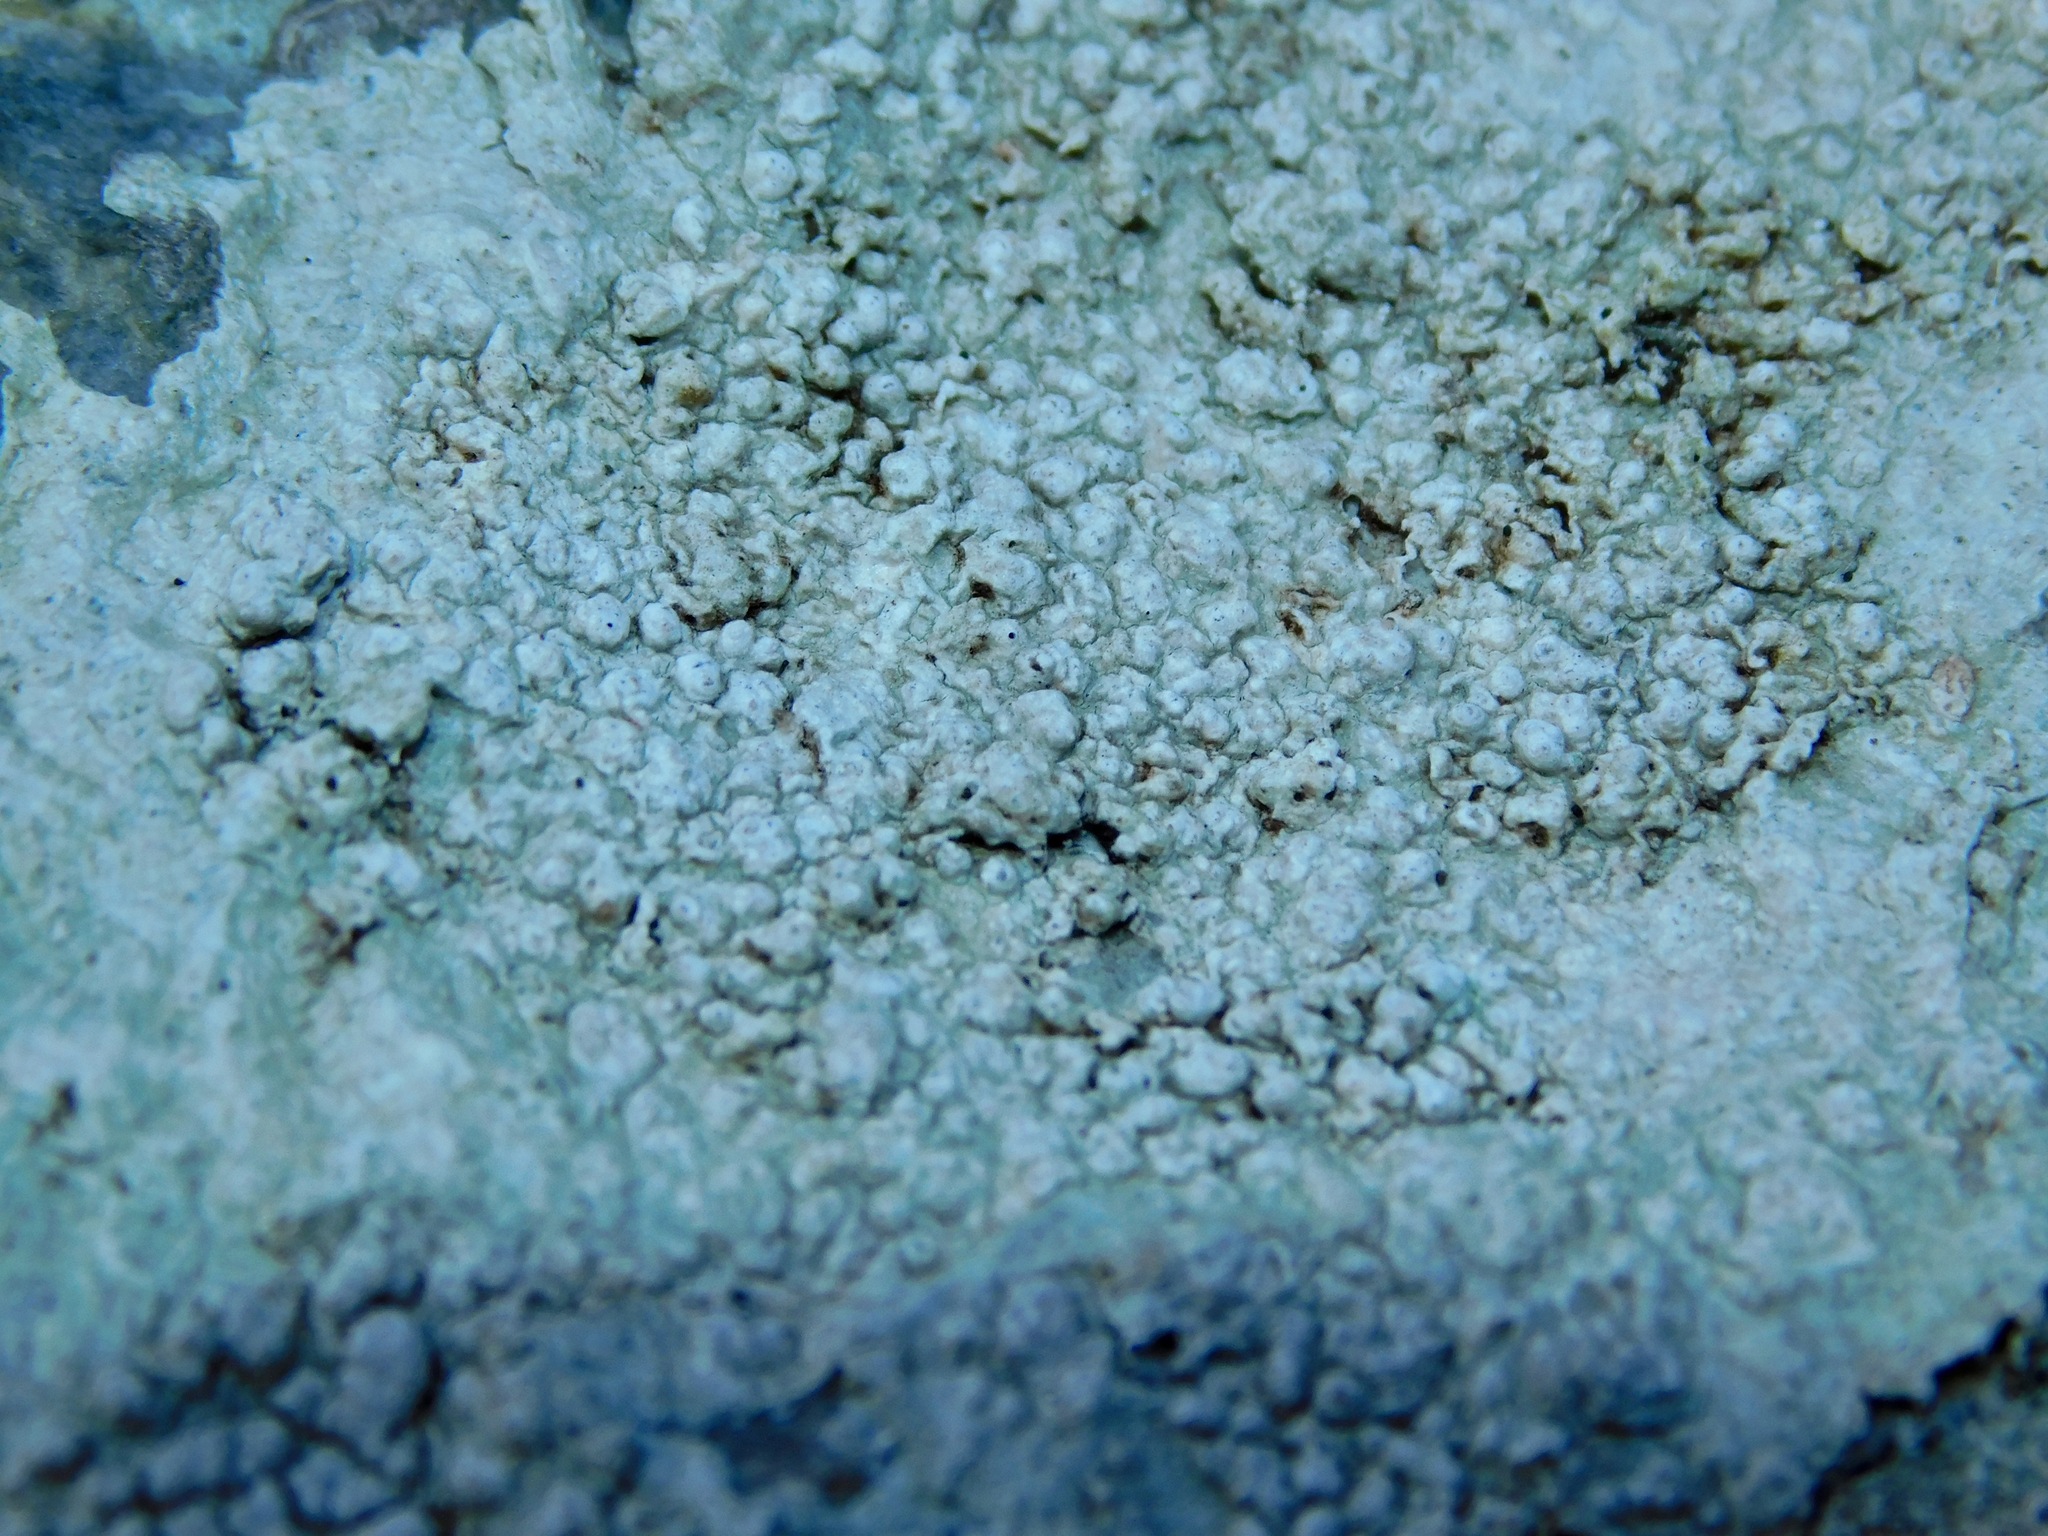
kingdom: Fungi
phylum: Ascomycota
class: Lecanoromycetes
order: Pertusariales
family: Pertusariaceae
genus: Pertusaria
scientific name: Pertusaria plittiana
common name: Rock wart lichen
